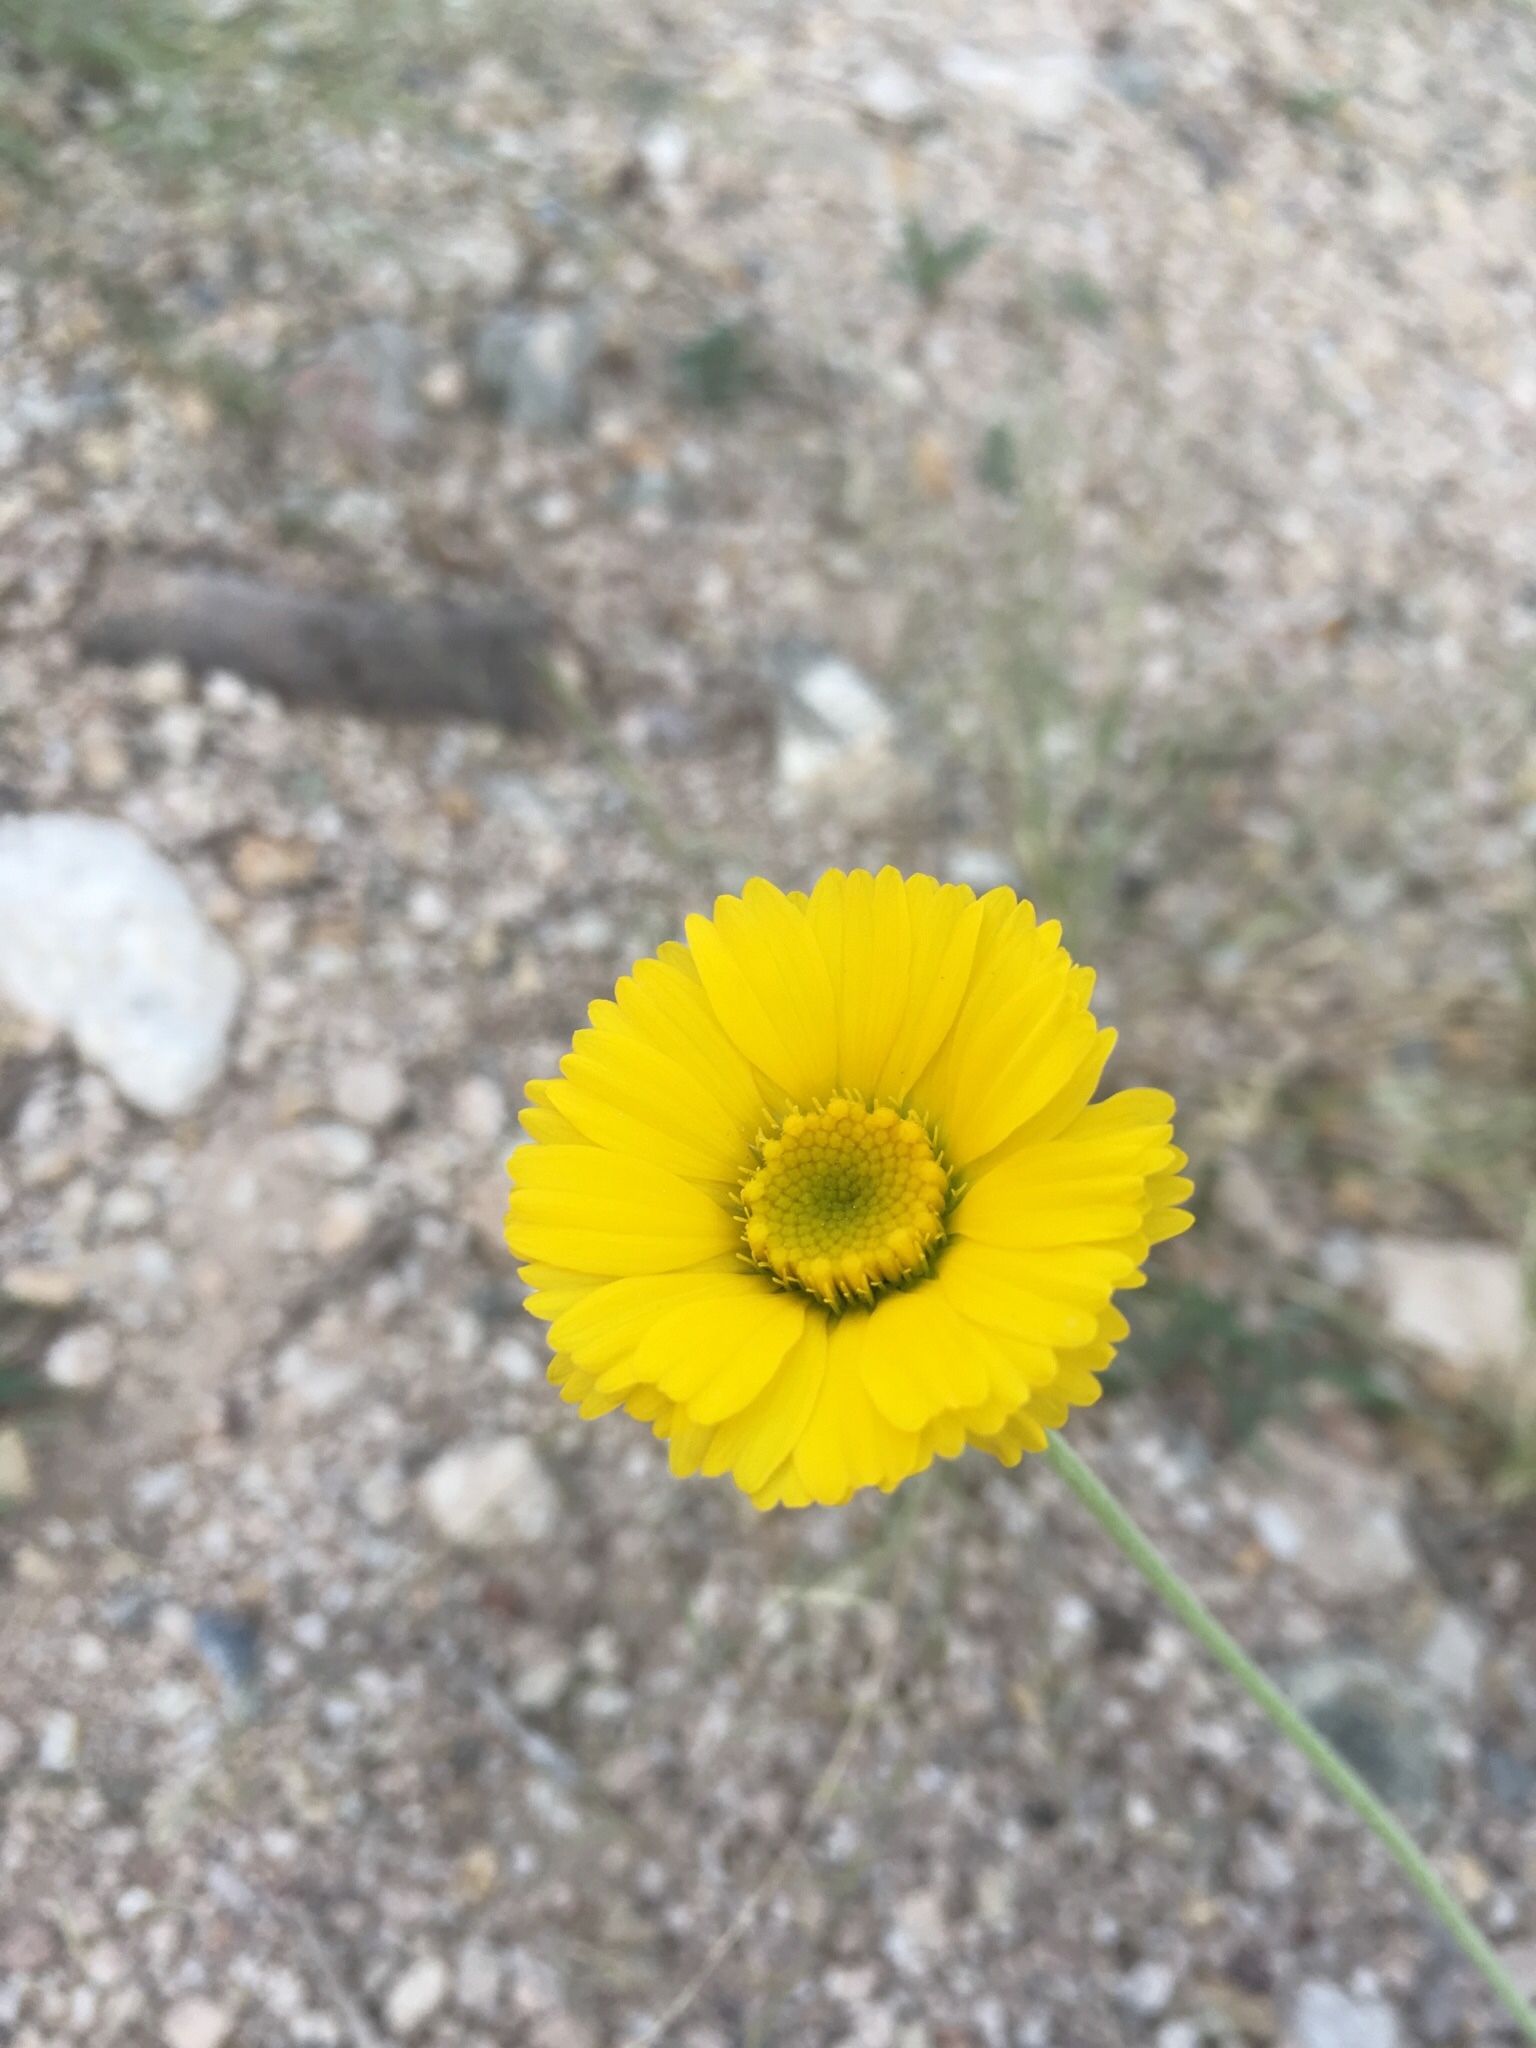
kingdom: Plantae
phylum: Tracheophyta
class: Magnoliopsida
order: Asterales
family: Asteraceae
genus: Baileya
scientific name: Baileya multiradiata
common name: Desert-marigold
